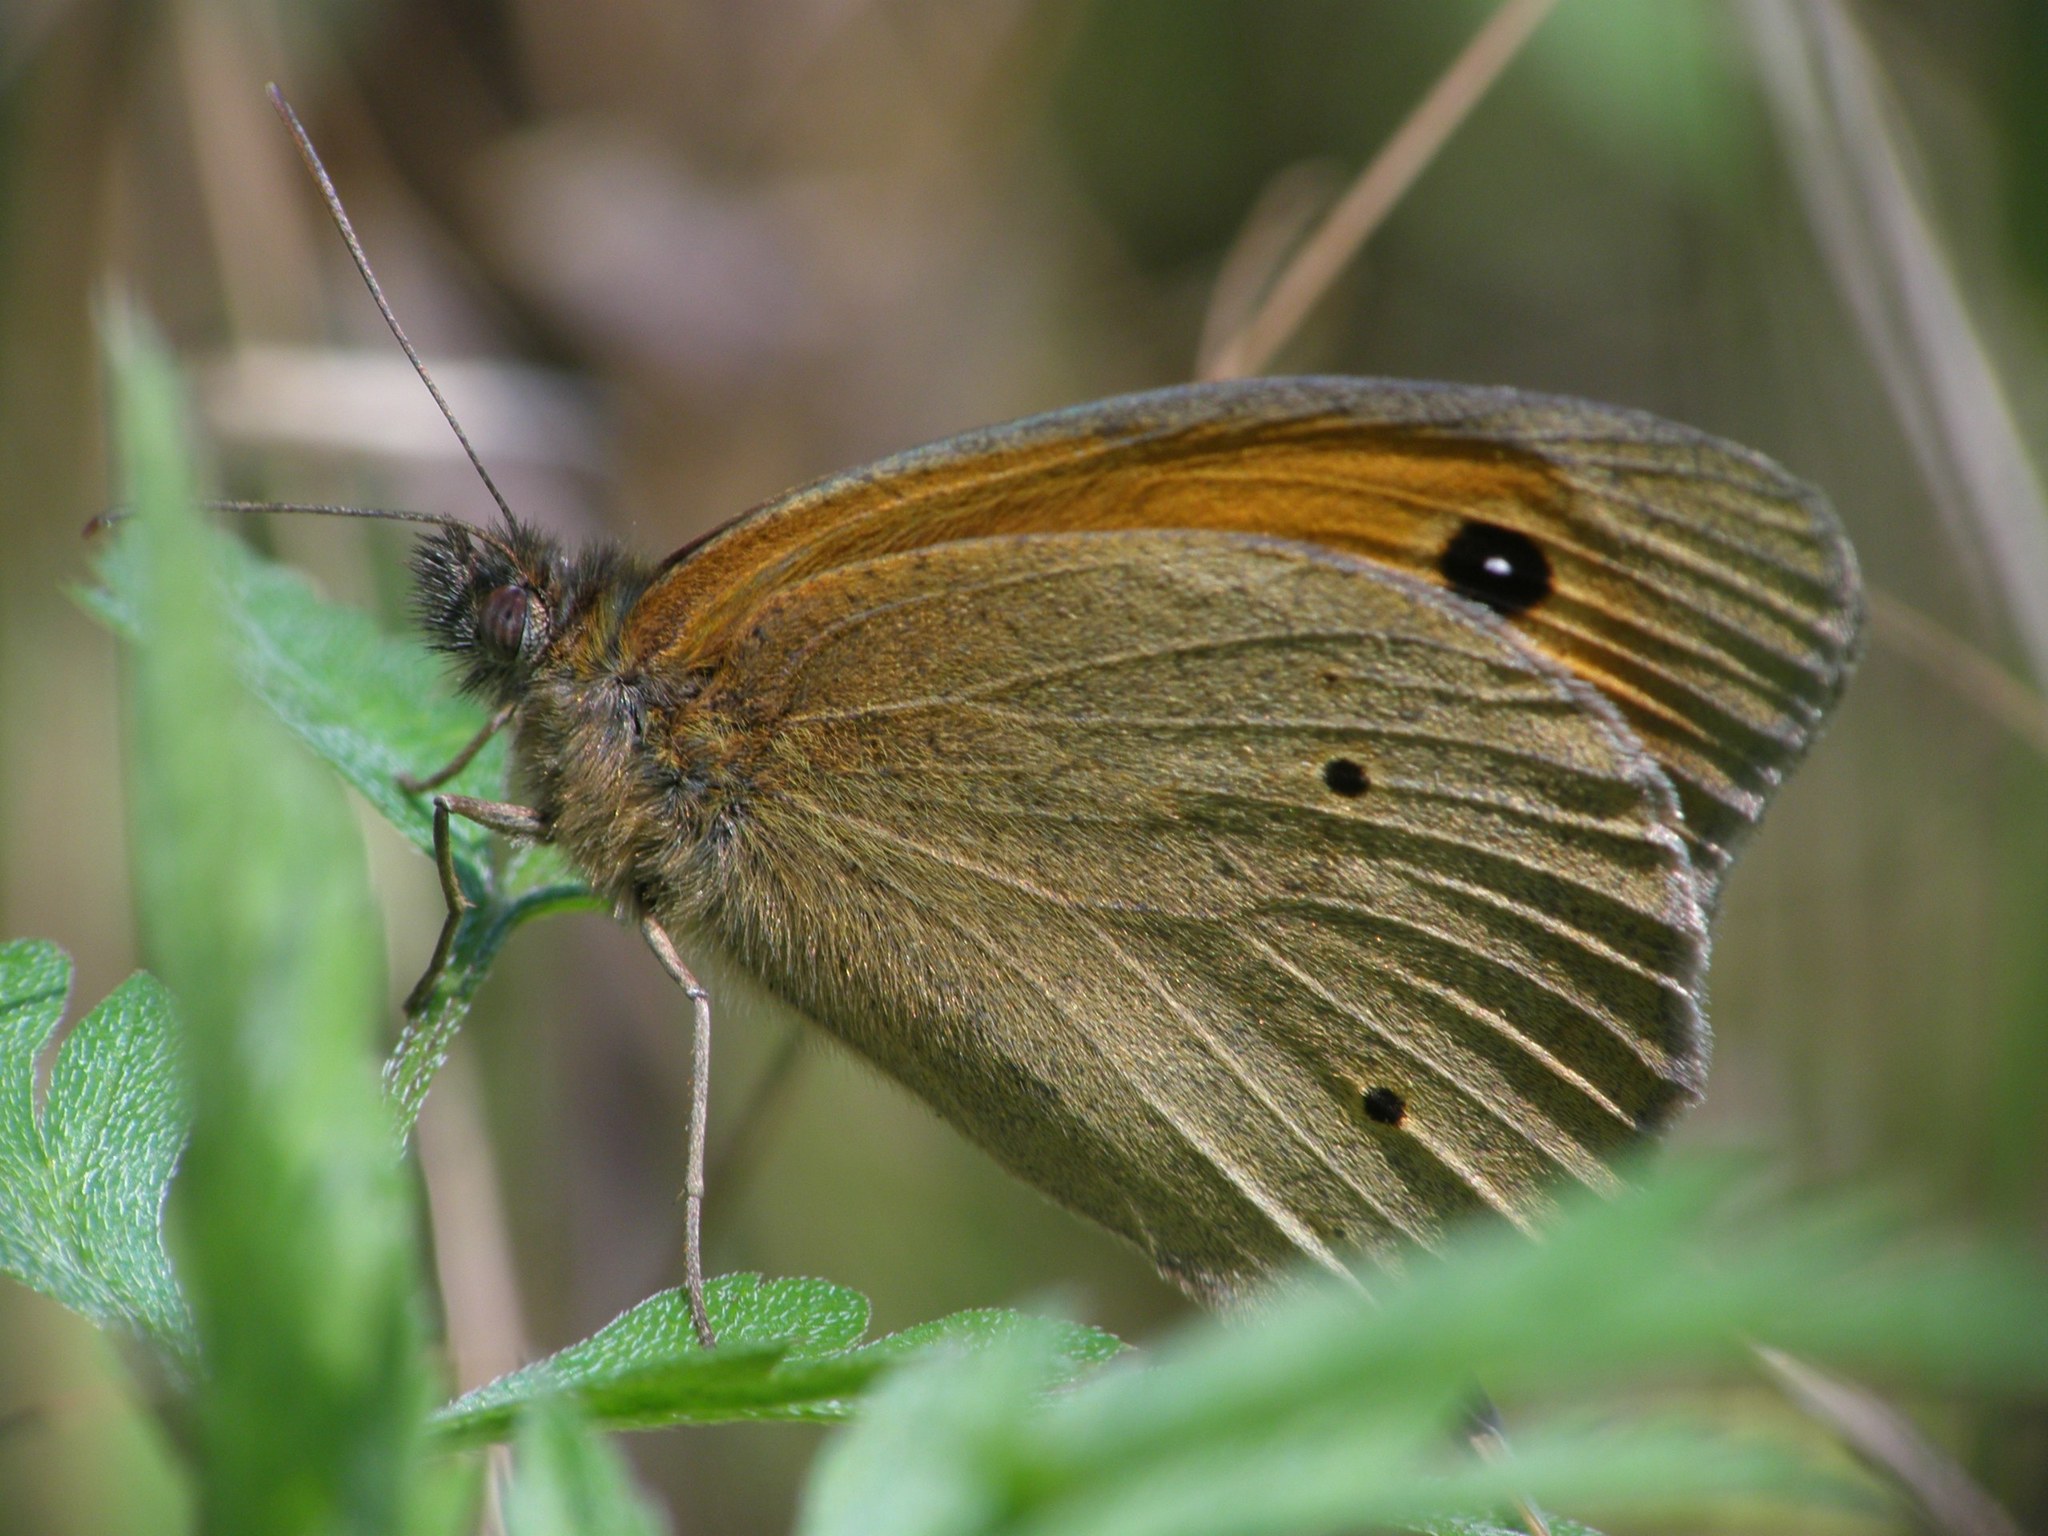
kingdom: Animalia
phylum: Arthropoda
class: Insecta
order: Lepidoptera
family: Nymphalidae
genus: Maniola
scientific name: Maniola jurtina
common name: Meadow brown
